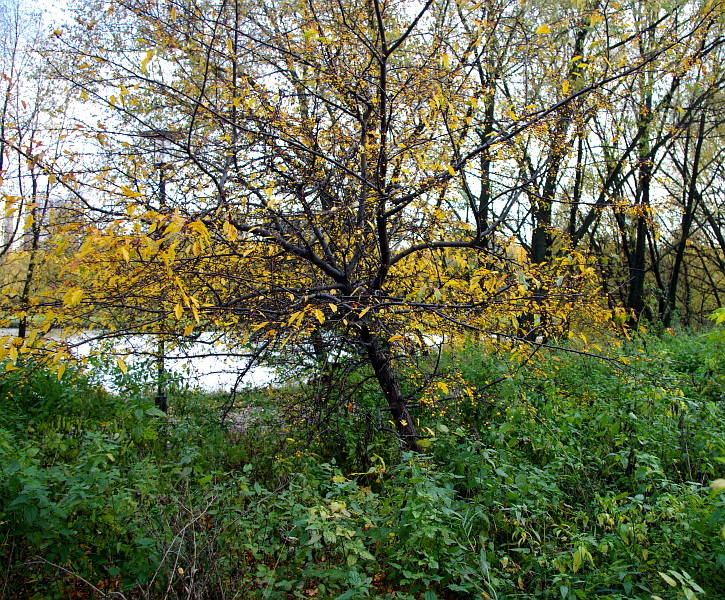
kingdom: Plantae
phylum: Tracheophyta
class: Magnoliopsida
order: Rosales
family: Rosaceae
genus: Malus
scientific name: Malus toringo
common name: Japanese crabapple
